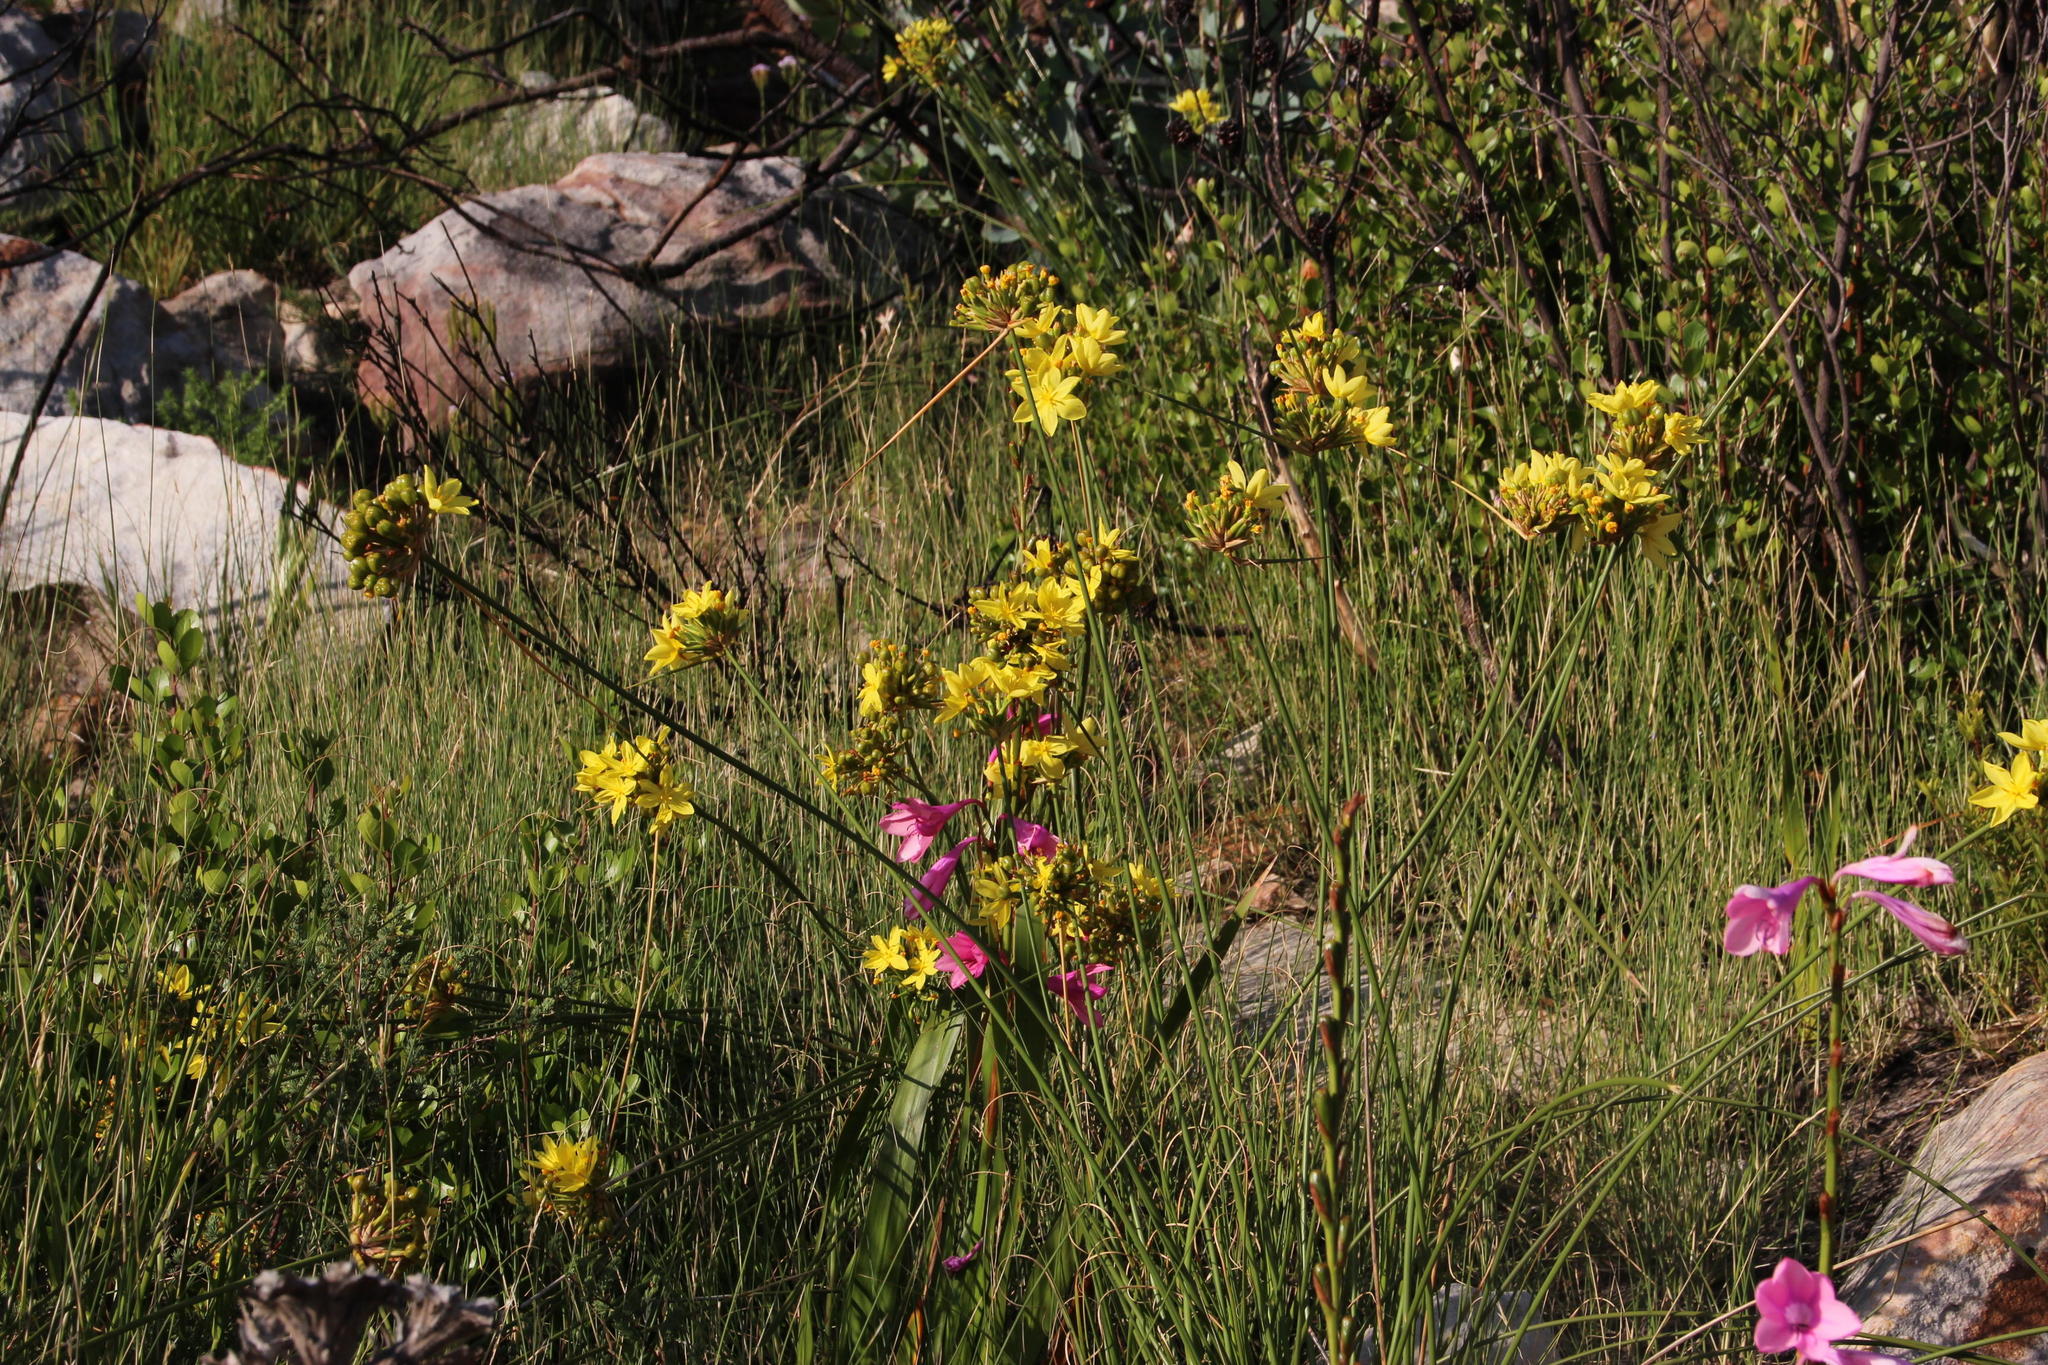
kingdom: Plantae
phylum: Tracheophyta
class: Liliopsida
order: Asparagales
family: Iridaceae
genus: Bobartia
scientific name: Bobartia indica
